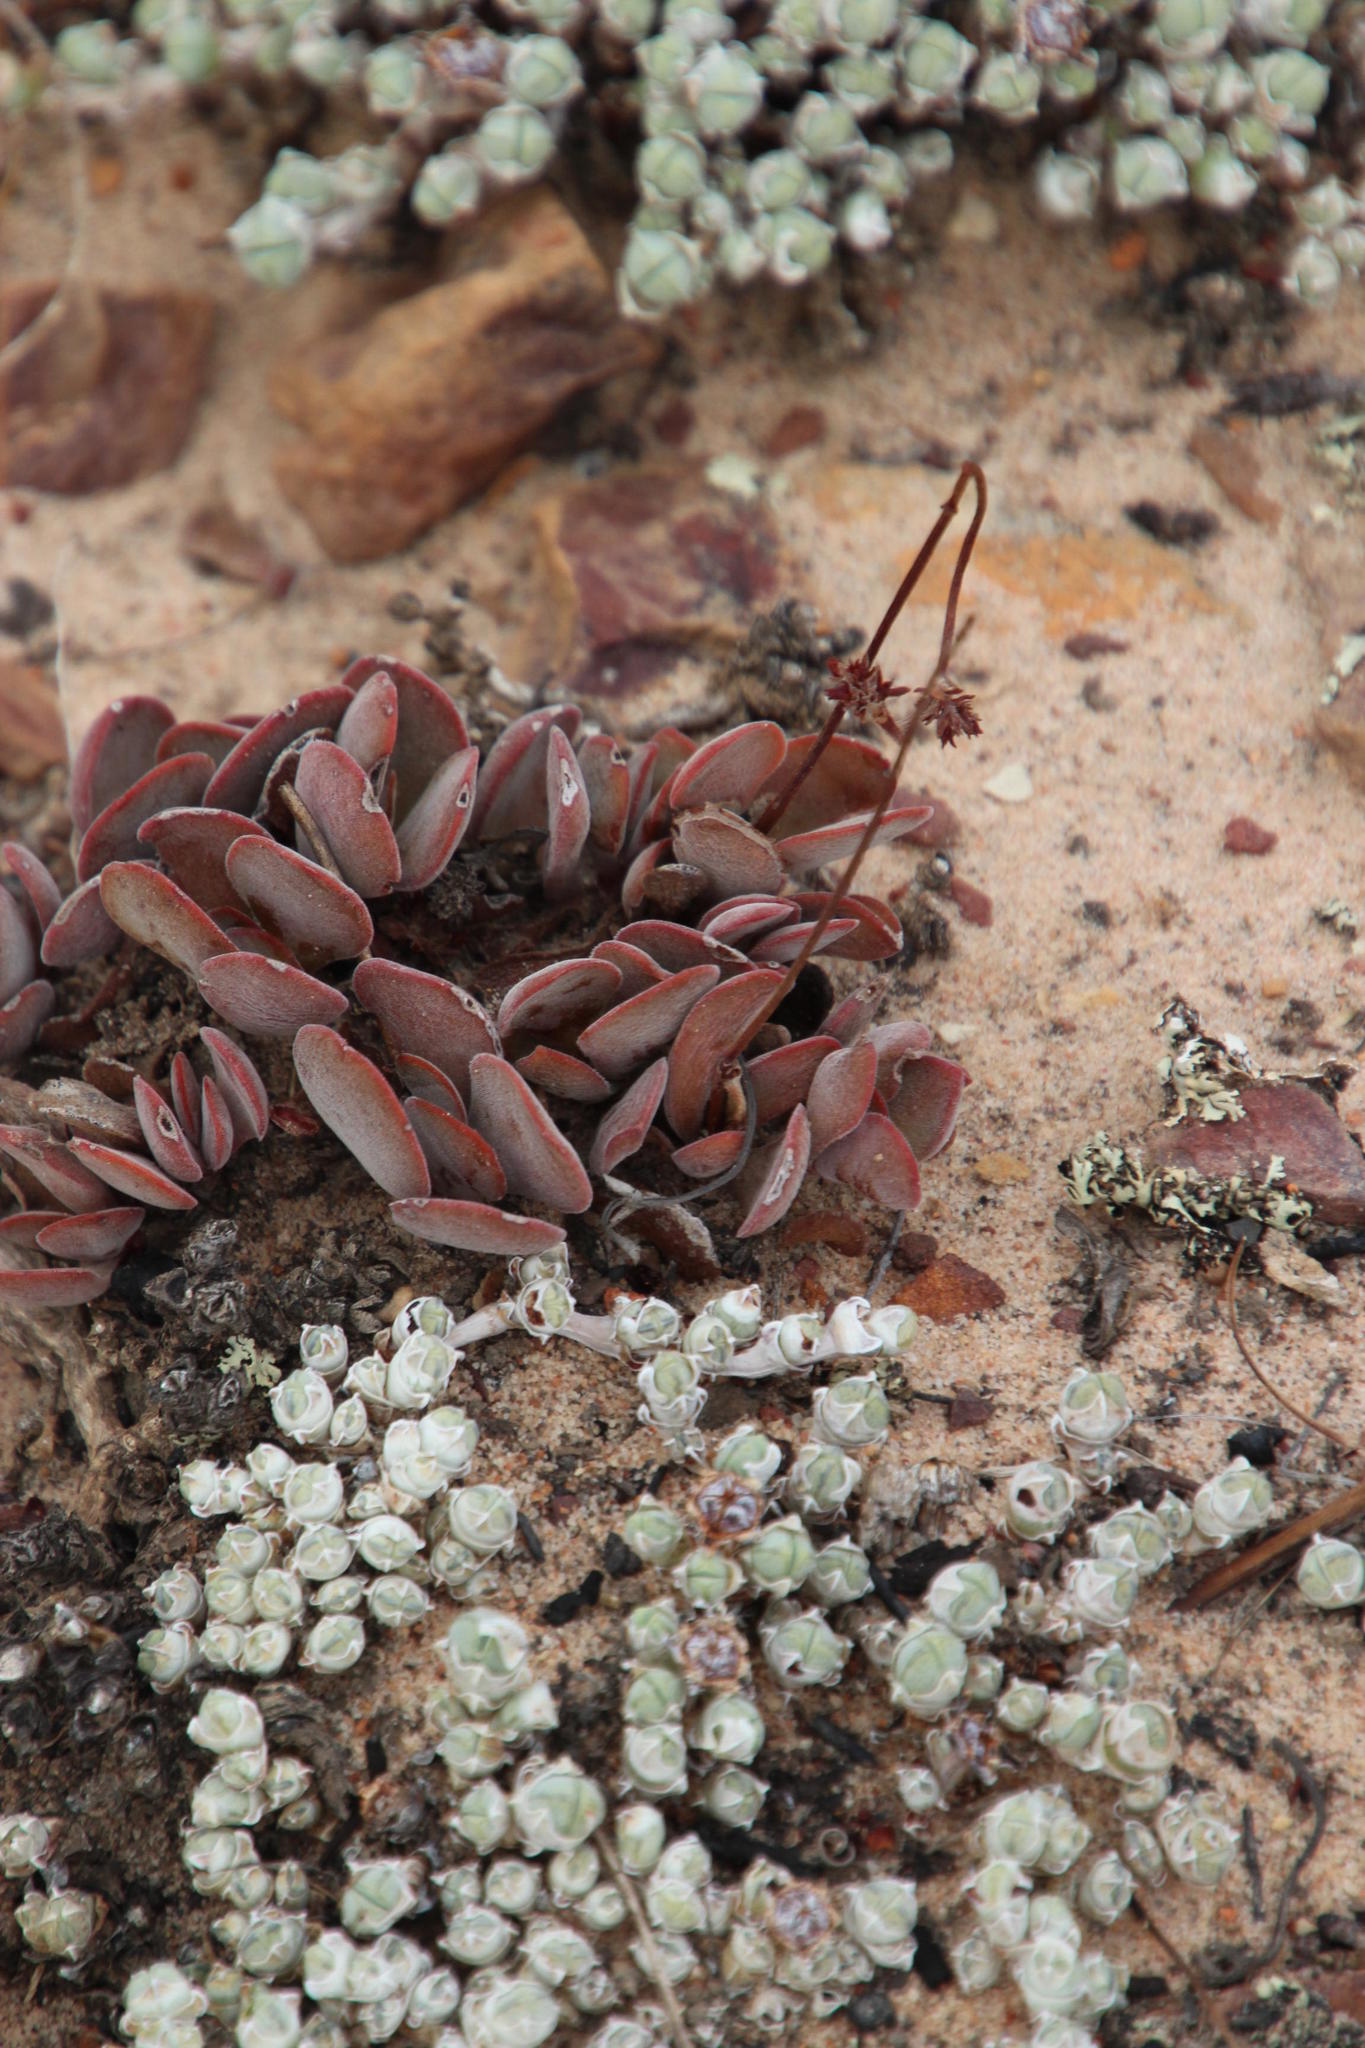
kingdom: Plantae
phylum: Tracheophyta
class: Magnoliopsida
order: Saxifragales
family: Crassulaceae
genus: Crassula
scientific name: Crassula atropurpurea
